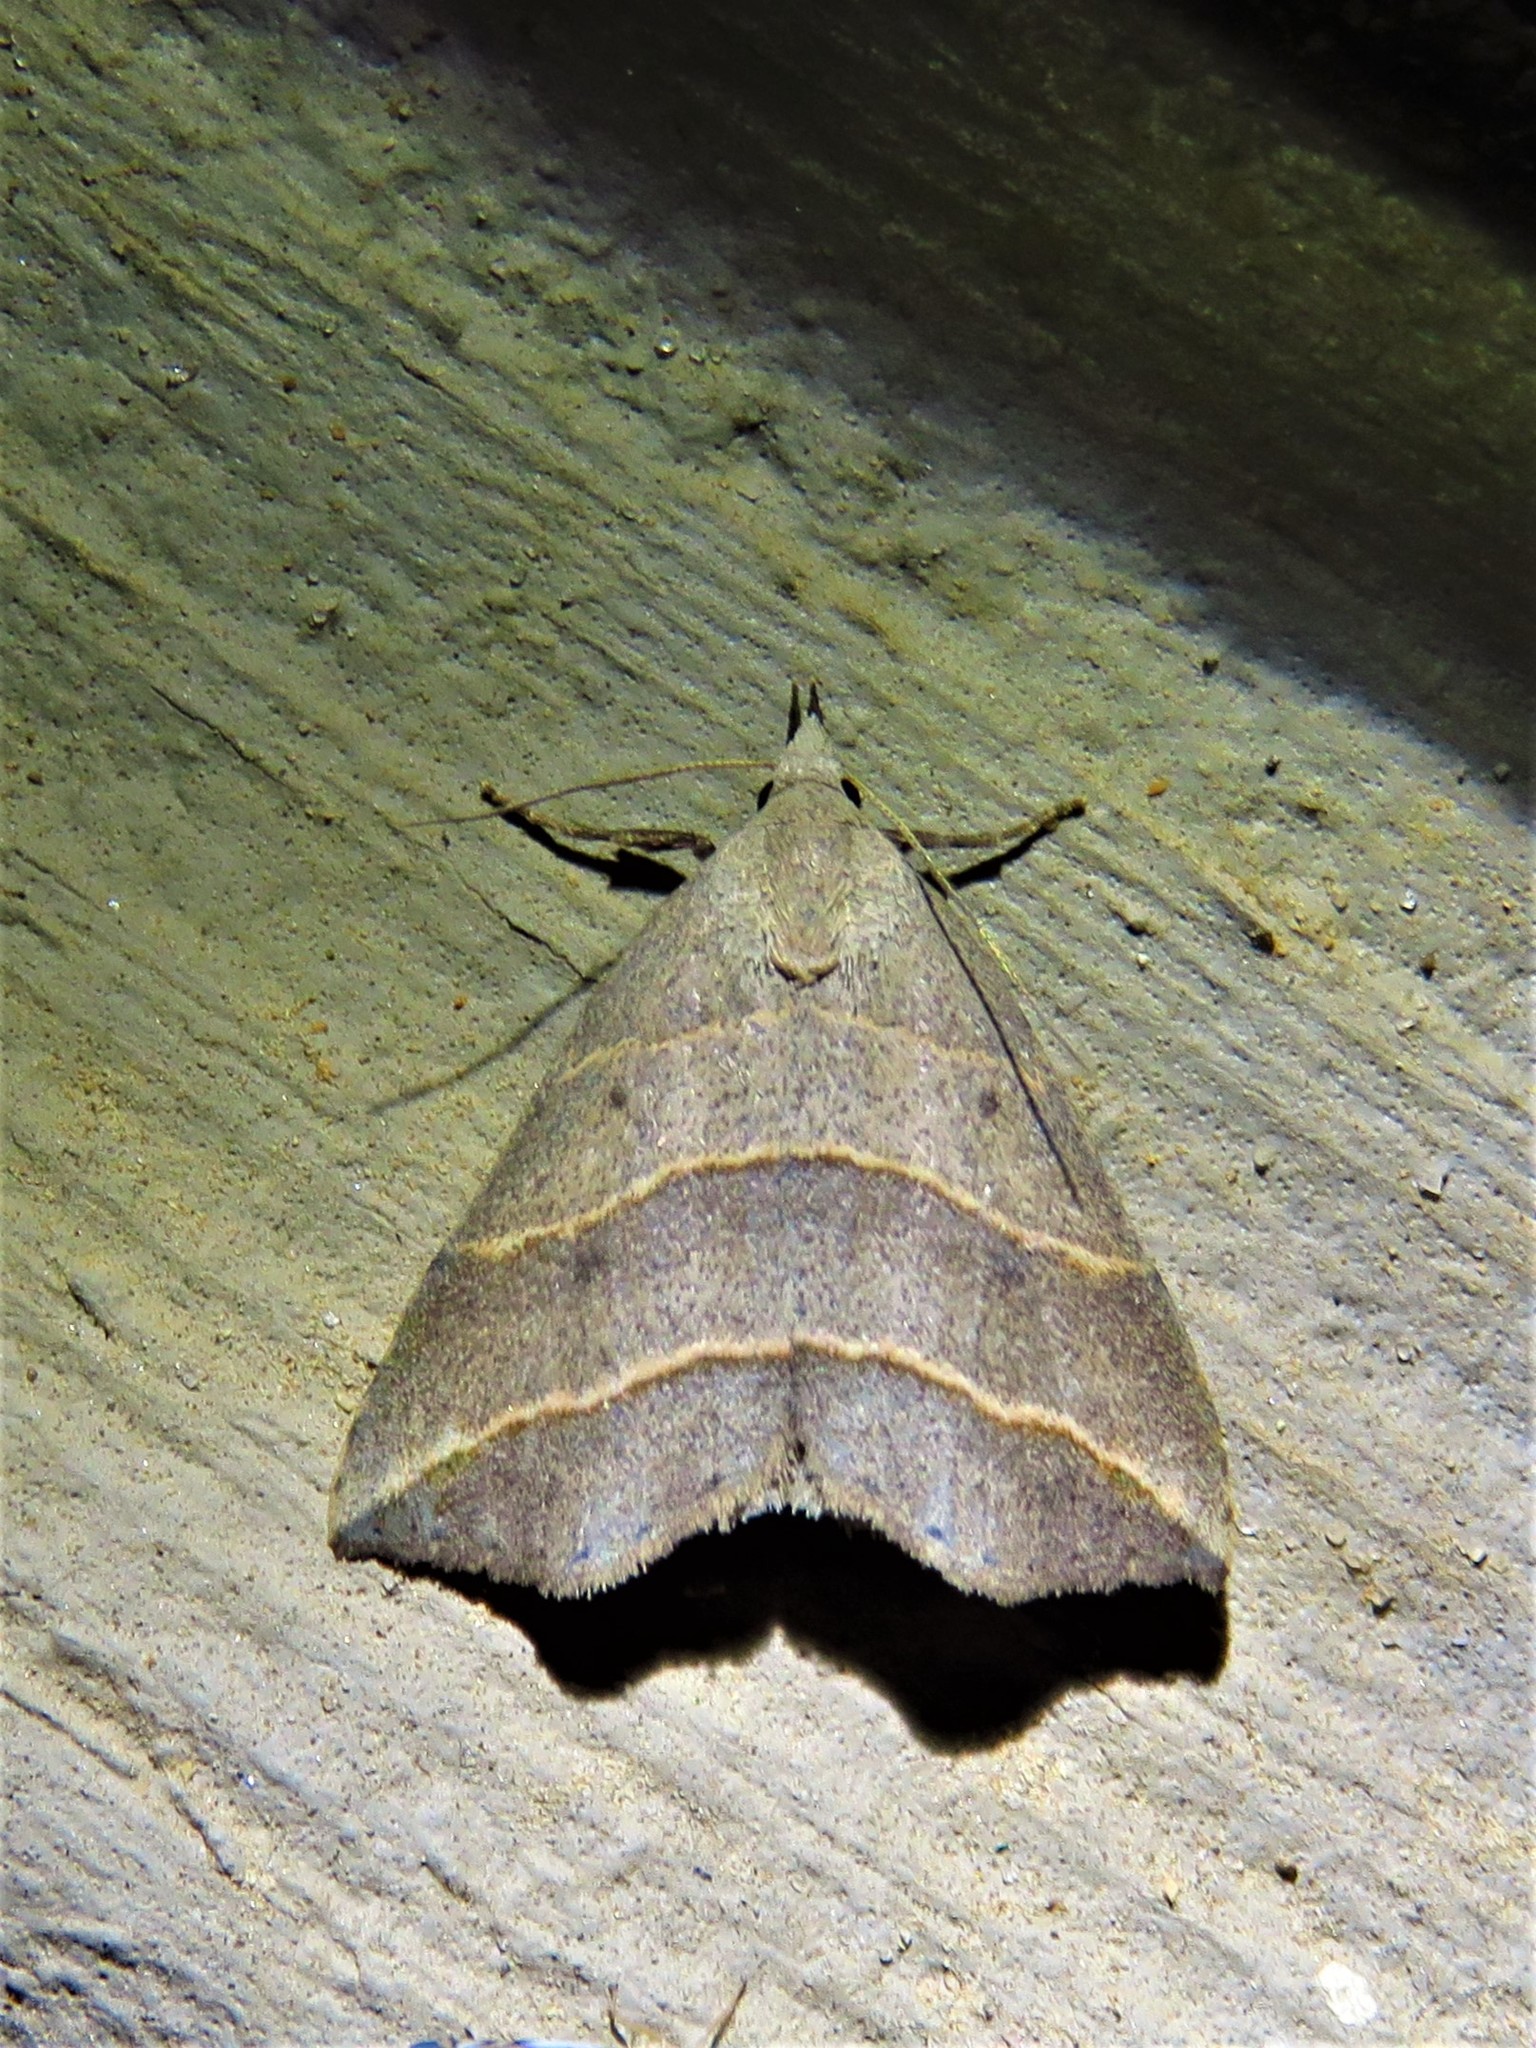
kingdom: Animalia
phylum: Arthropoda
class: Insecta
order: Lepidoptera
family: Erebidae
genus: Colobochyla
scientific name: Colobochyla interpuncta
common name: Yellow-lined owlet
